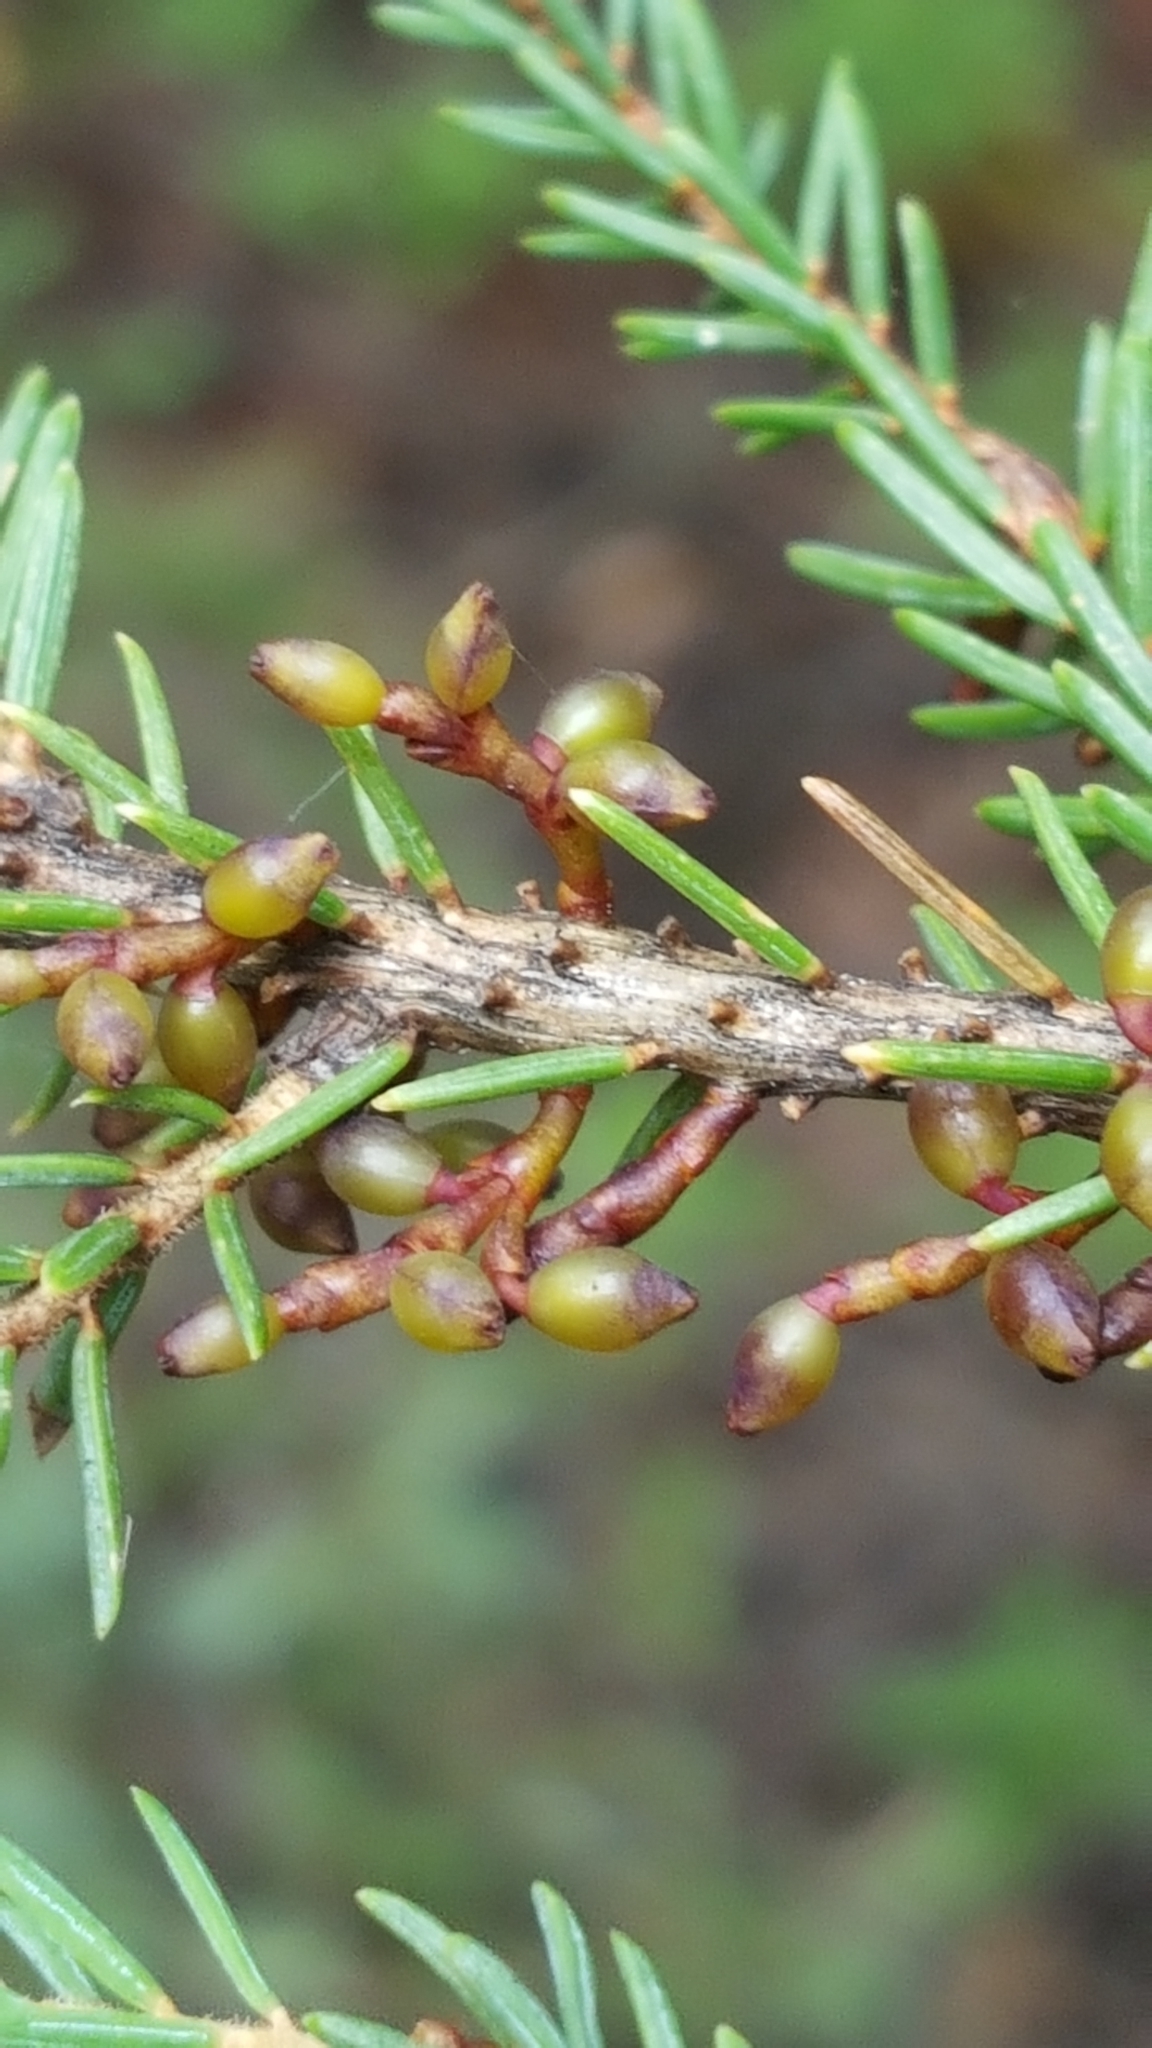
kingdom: Plantae
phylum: Tracheophyta
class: Magnoliopsida
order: Santalales
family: Viscaceae
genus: Arceuthobium
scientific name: Arceuthobium pusillum
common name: Dwarf-mistletoe
